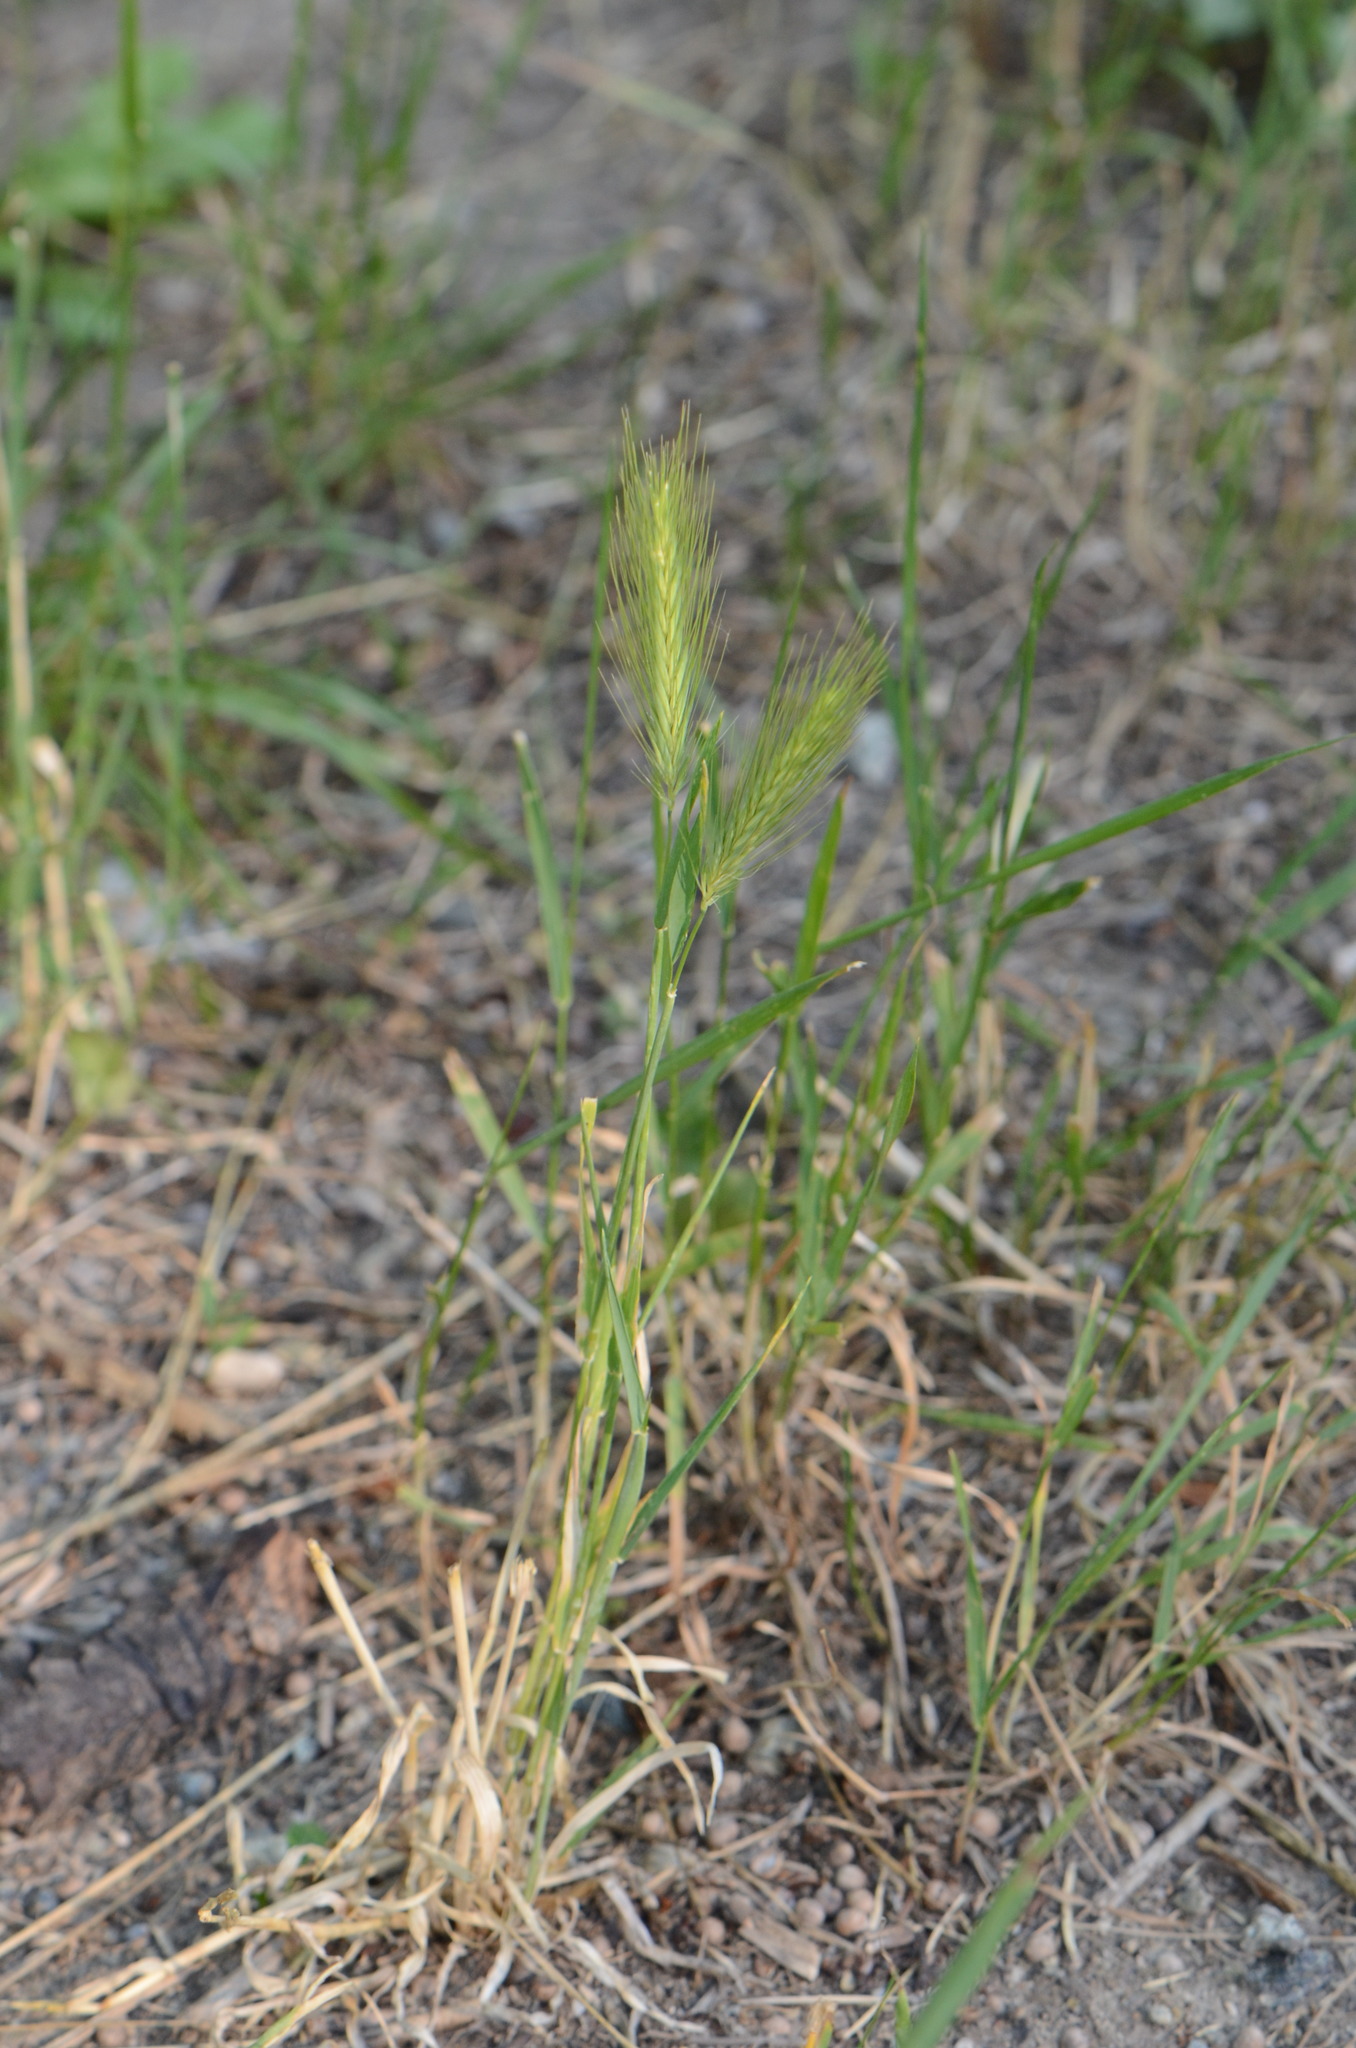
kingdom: Plantae
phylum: Tracheophyta
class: Liliopsida
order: Poales
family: Poaceae
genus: Hordeum
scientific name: Hordeum murinum
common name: Wall barley
